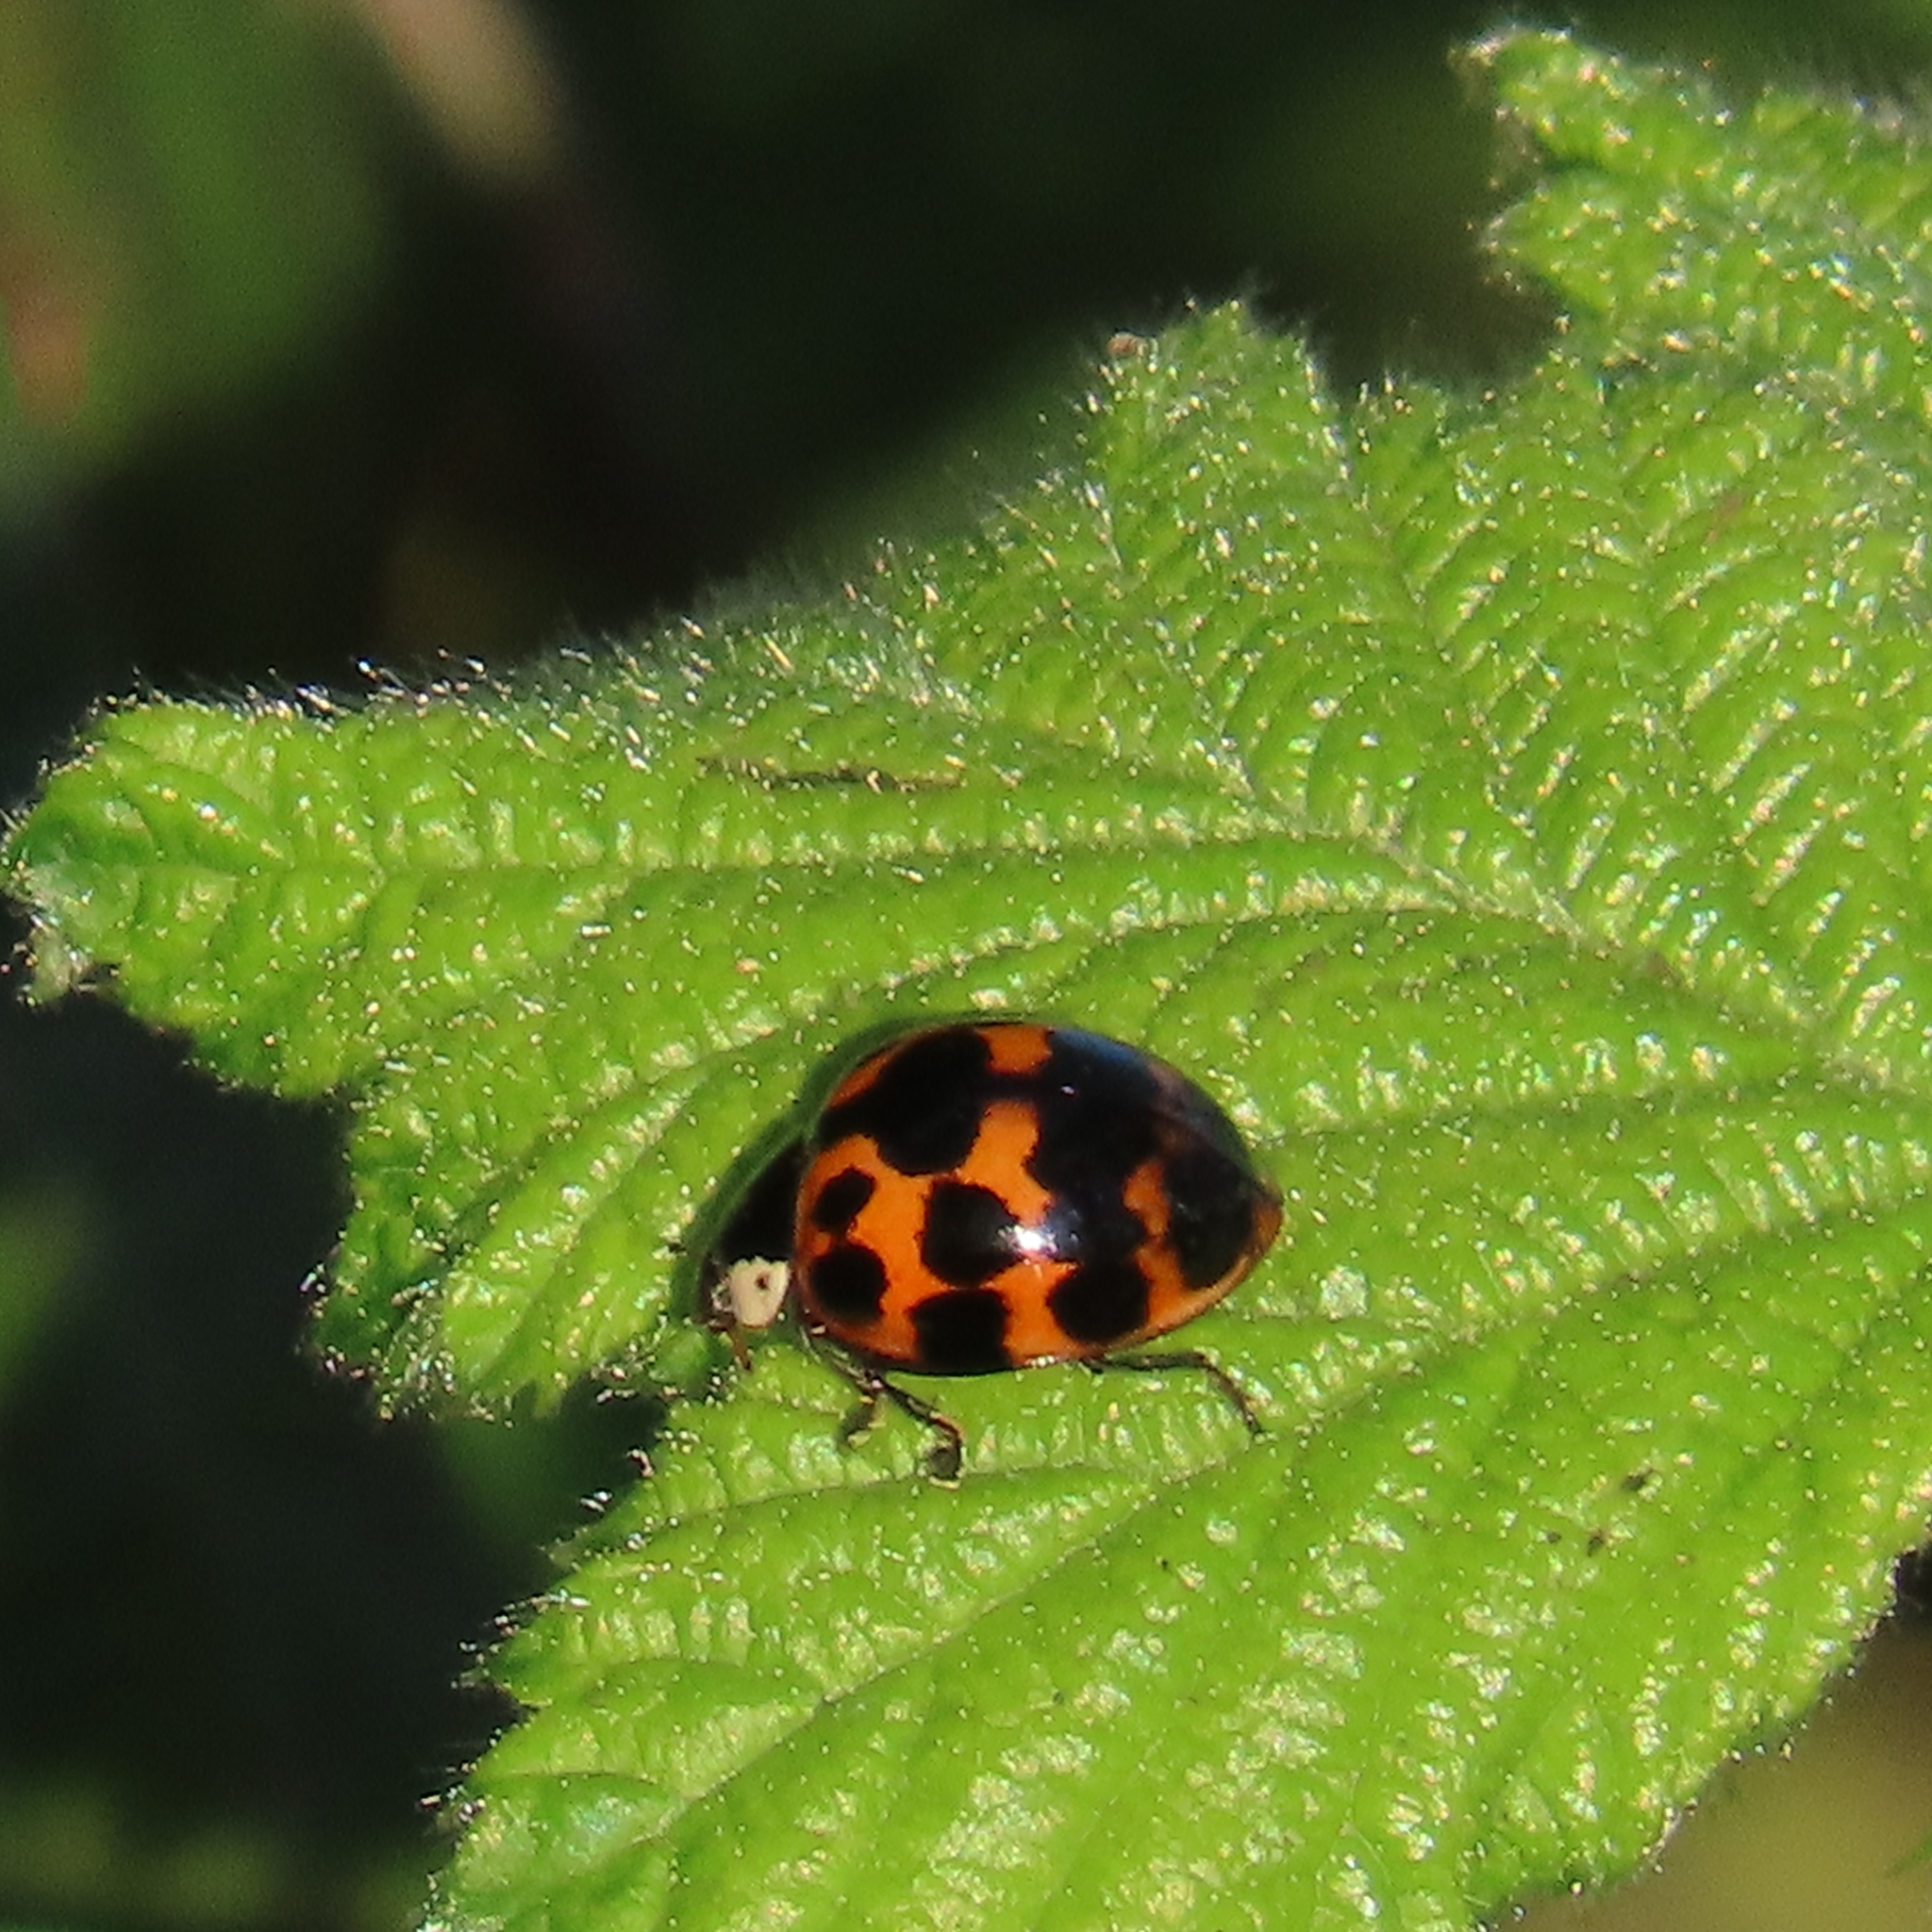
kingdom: Animalia
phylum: Arthropoda
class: Insecta
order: Coleoptera
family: Coccinellidae
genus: Harmonia
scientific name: Harmonia axyridis
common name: Harlequin ladybird
